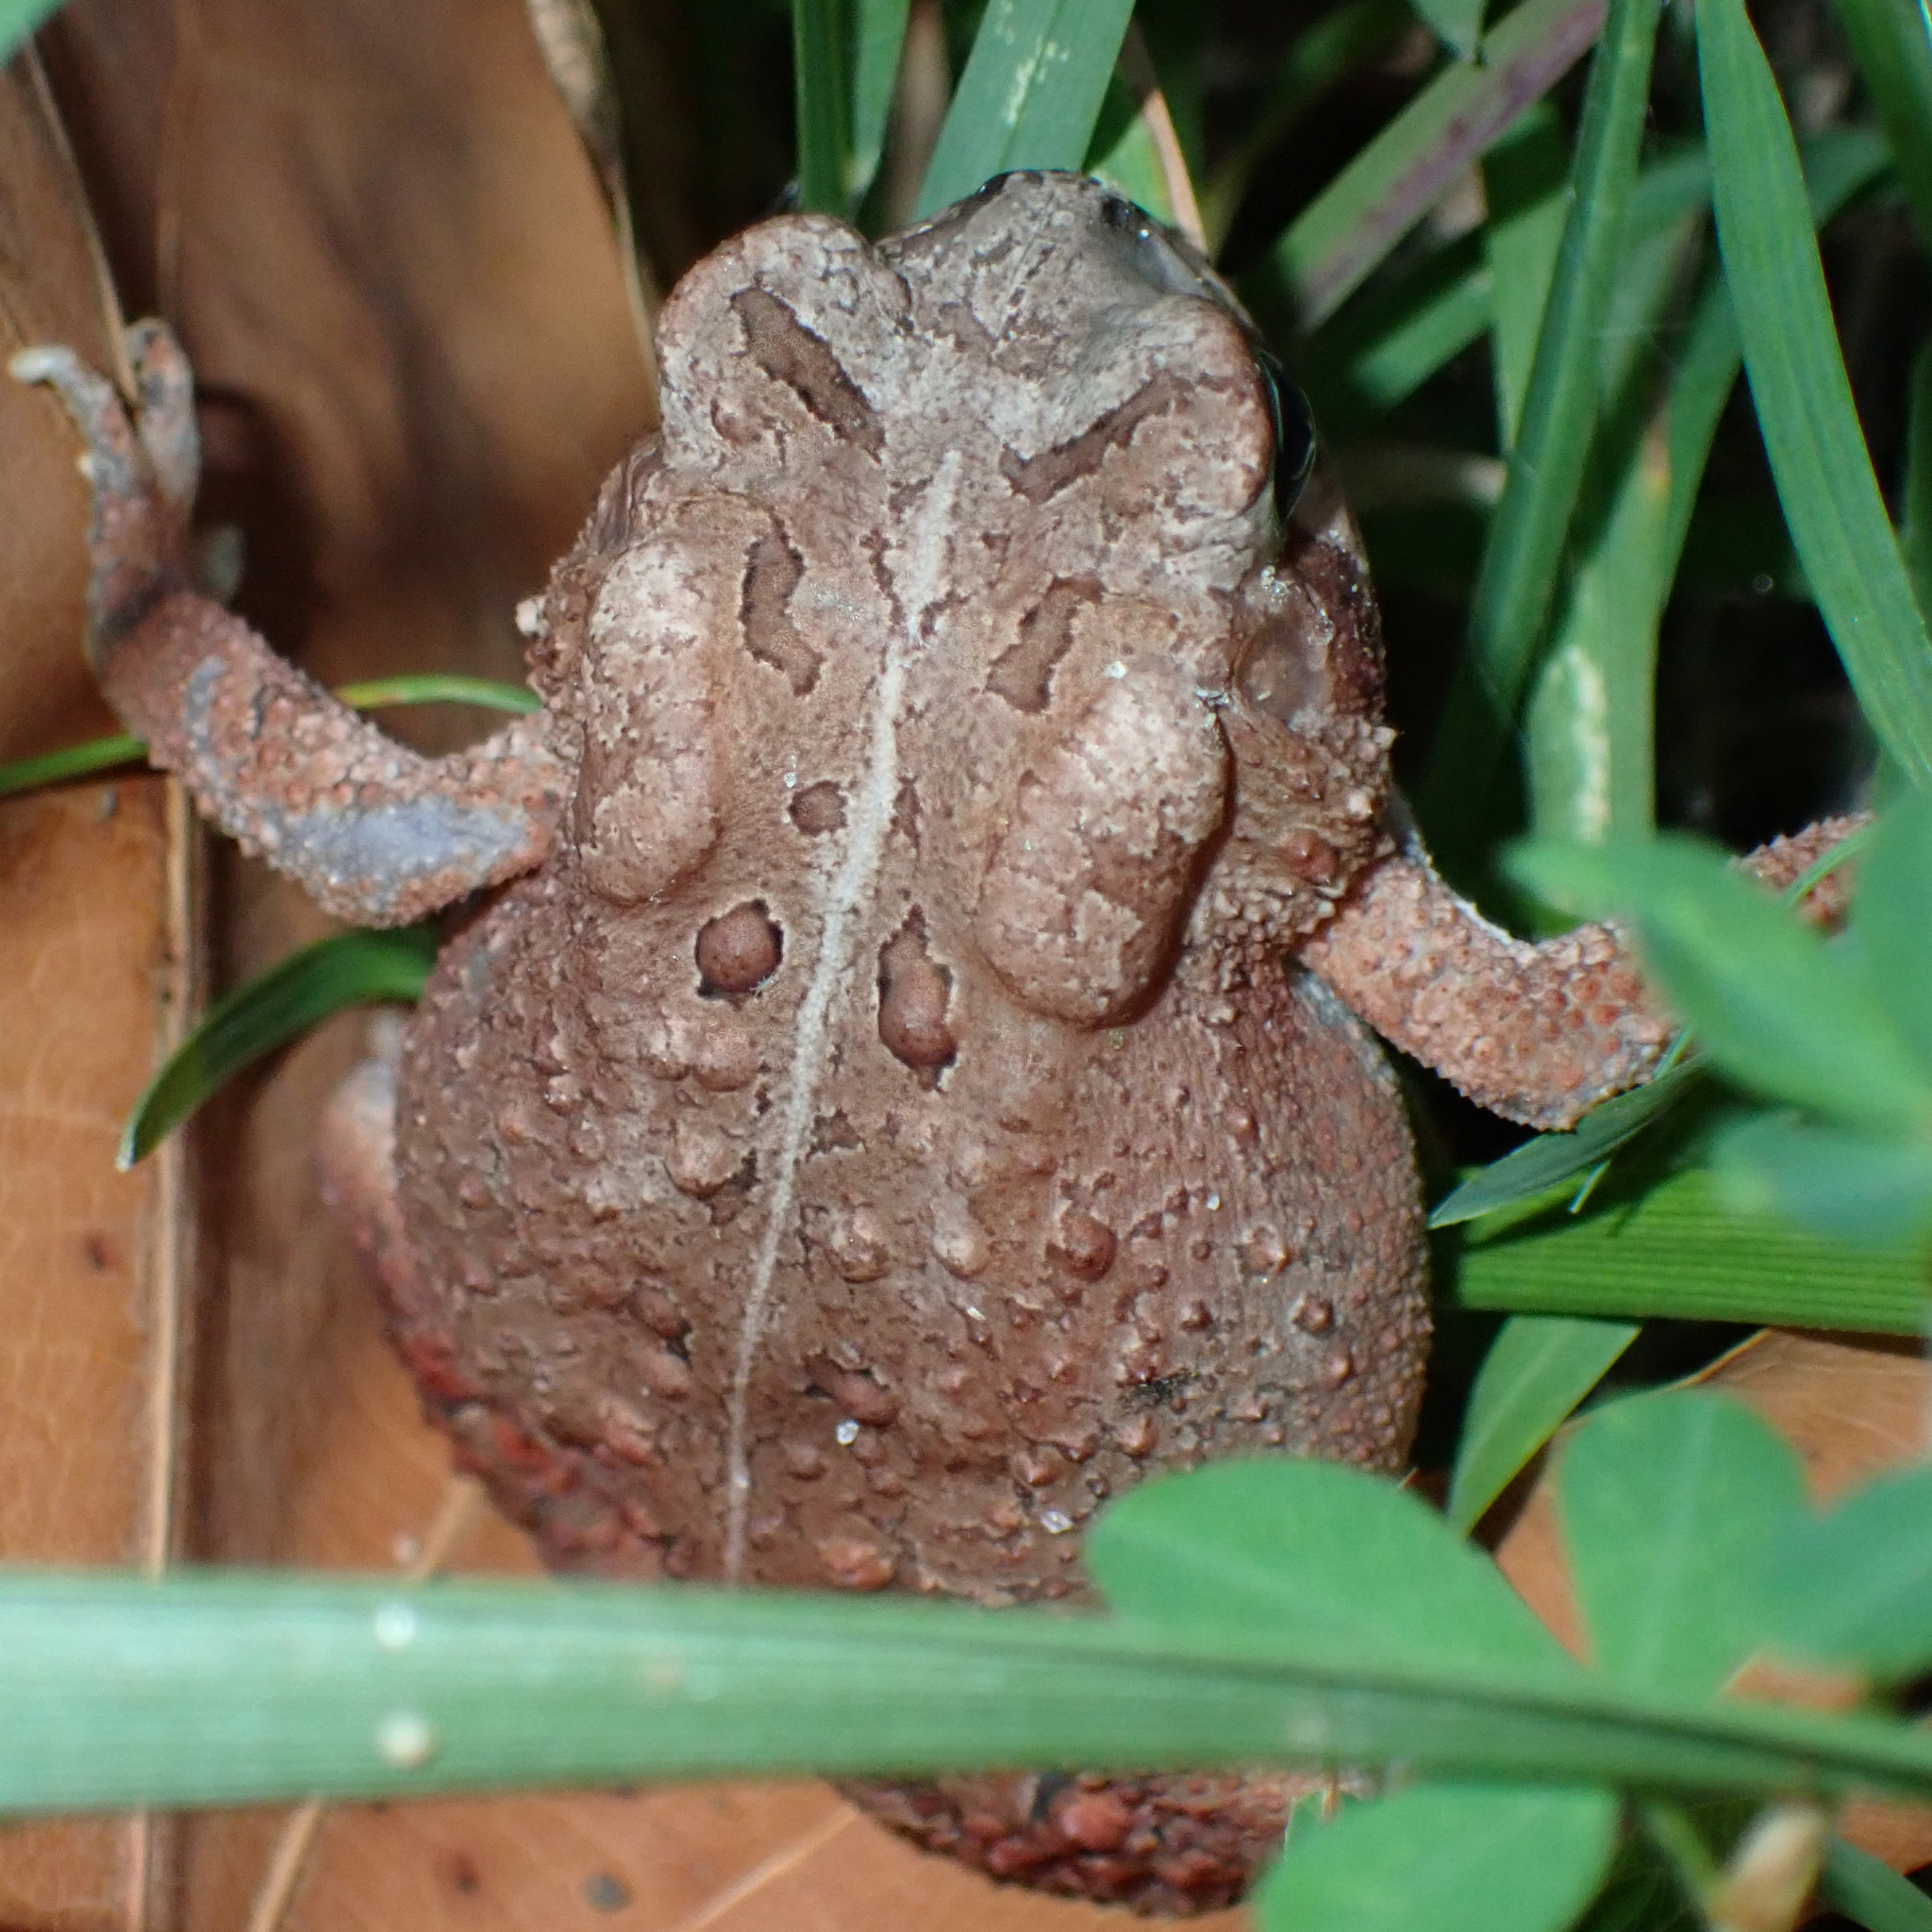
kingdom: Animalia
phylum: Chordata
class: Amphibia
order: Anura
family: Bufonidae
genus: Anaxyrus
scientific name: Anaxyrus americanus
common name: American toad
